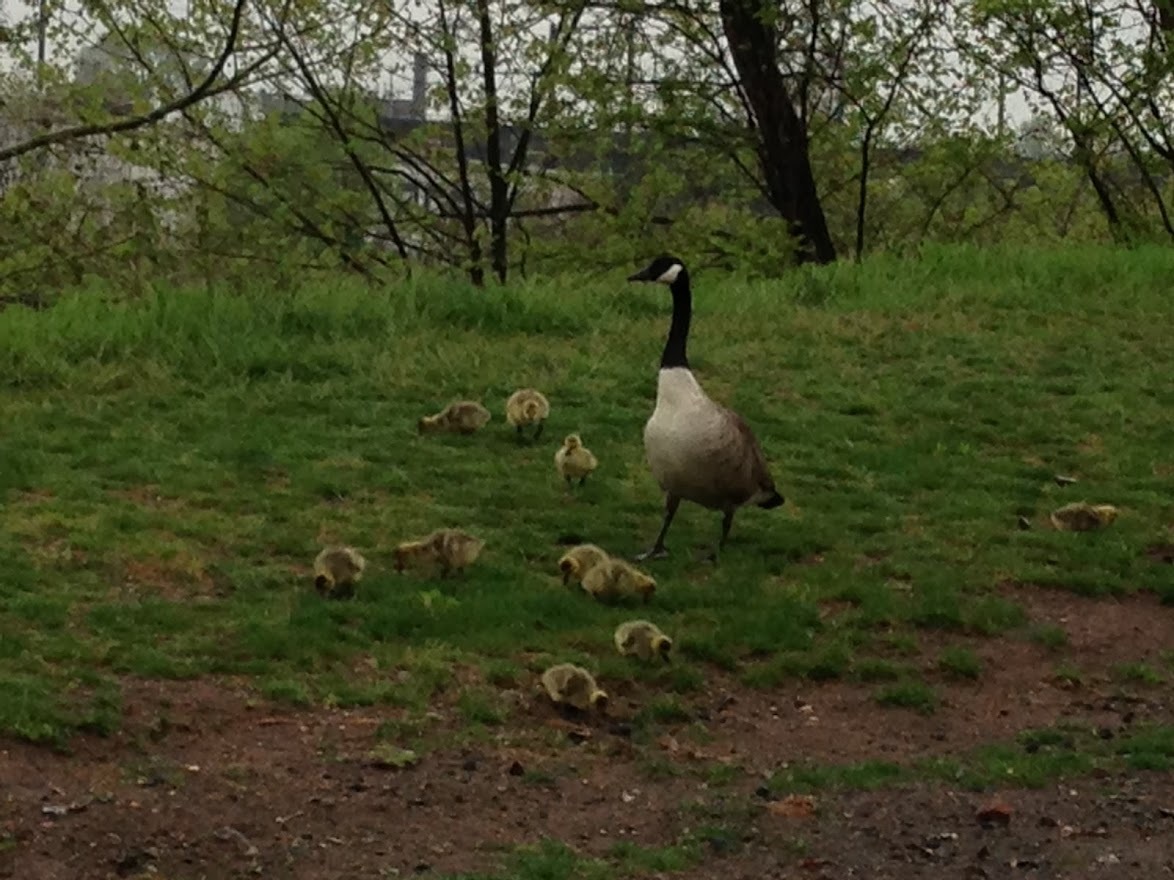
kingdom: Animalia
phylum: Chordata
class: Aves
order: Anseriformes
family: Anatidae
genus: Branta
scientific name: Branta canadensis
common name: Canada goose
